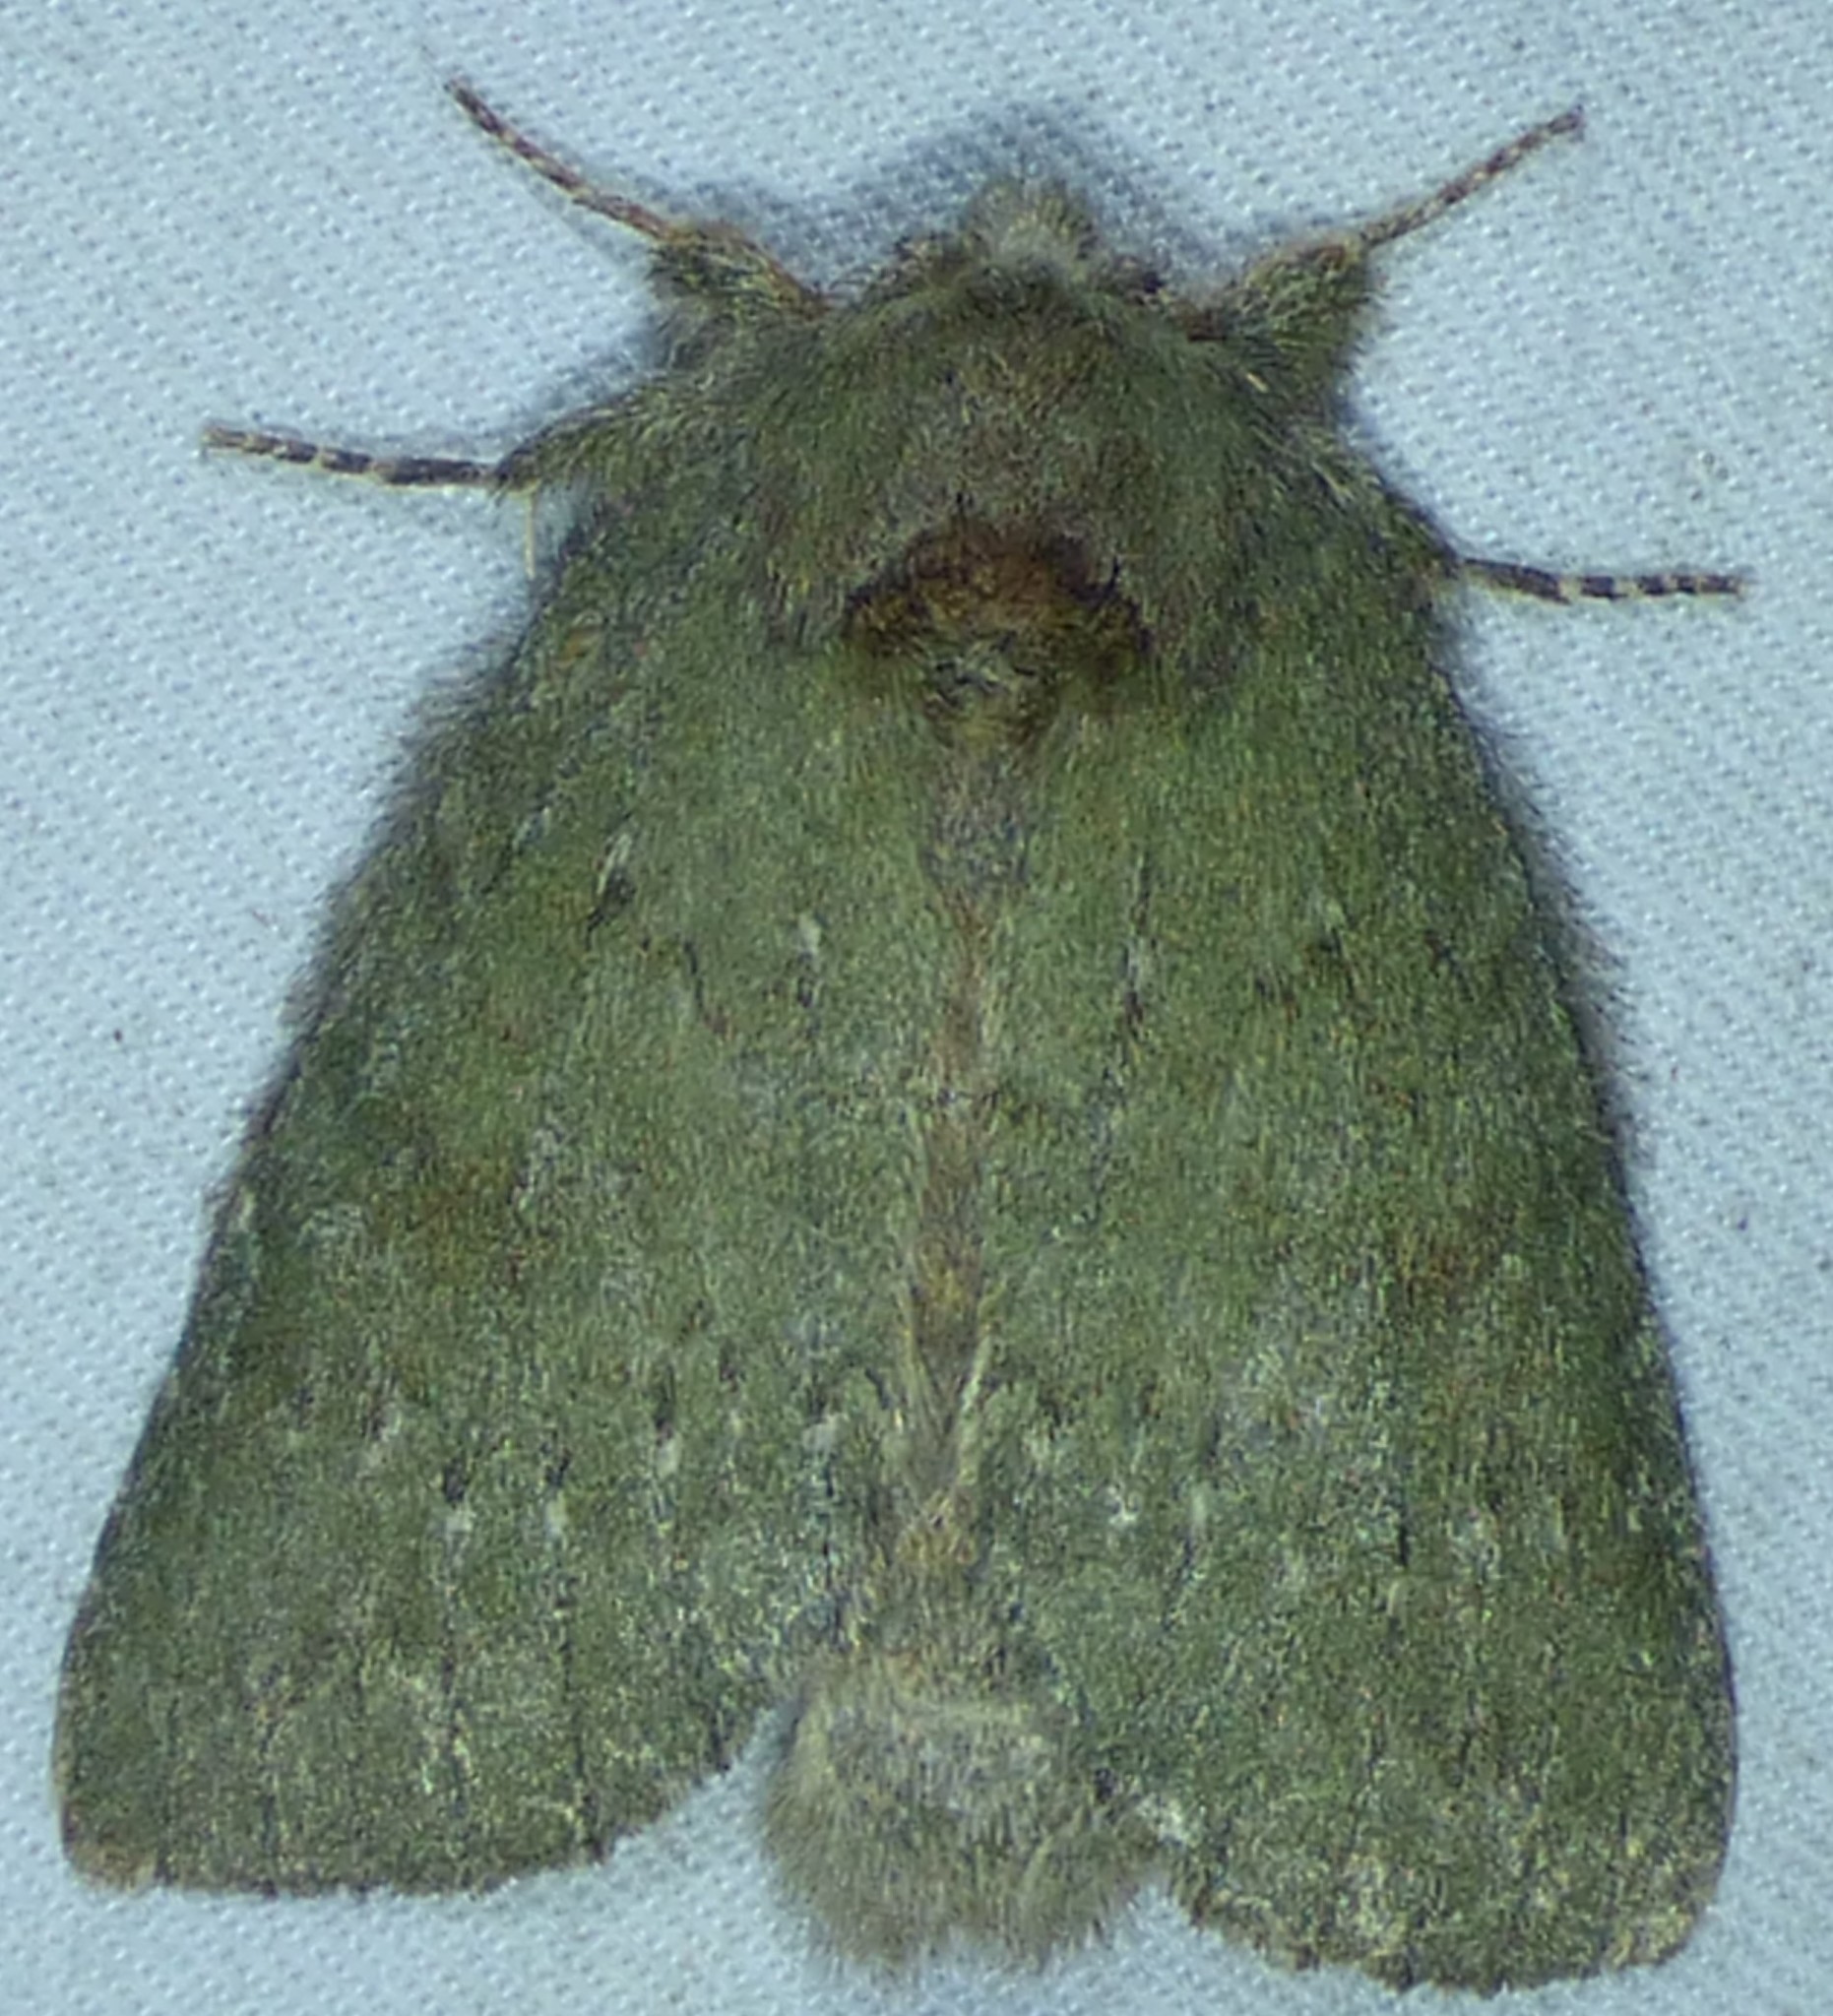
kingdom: Animalia
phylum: Arthropoda
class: Insecta
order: Lepidoptera
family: Notodontidae
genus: Misogada
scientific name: Misogada unicolor
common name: Drab prominent
